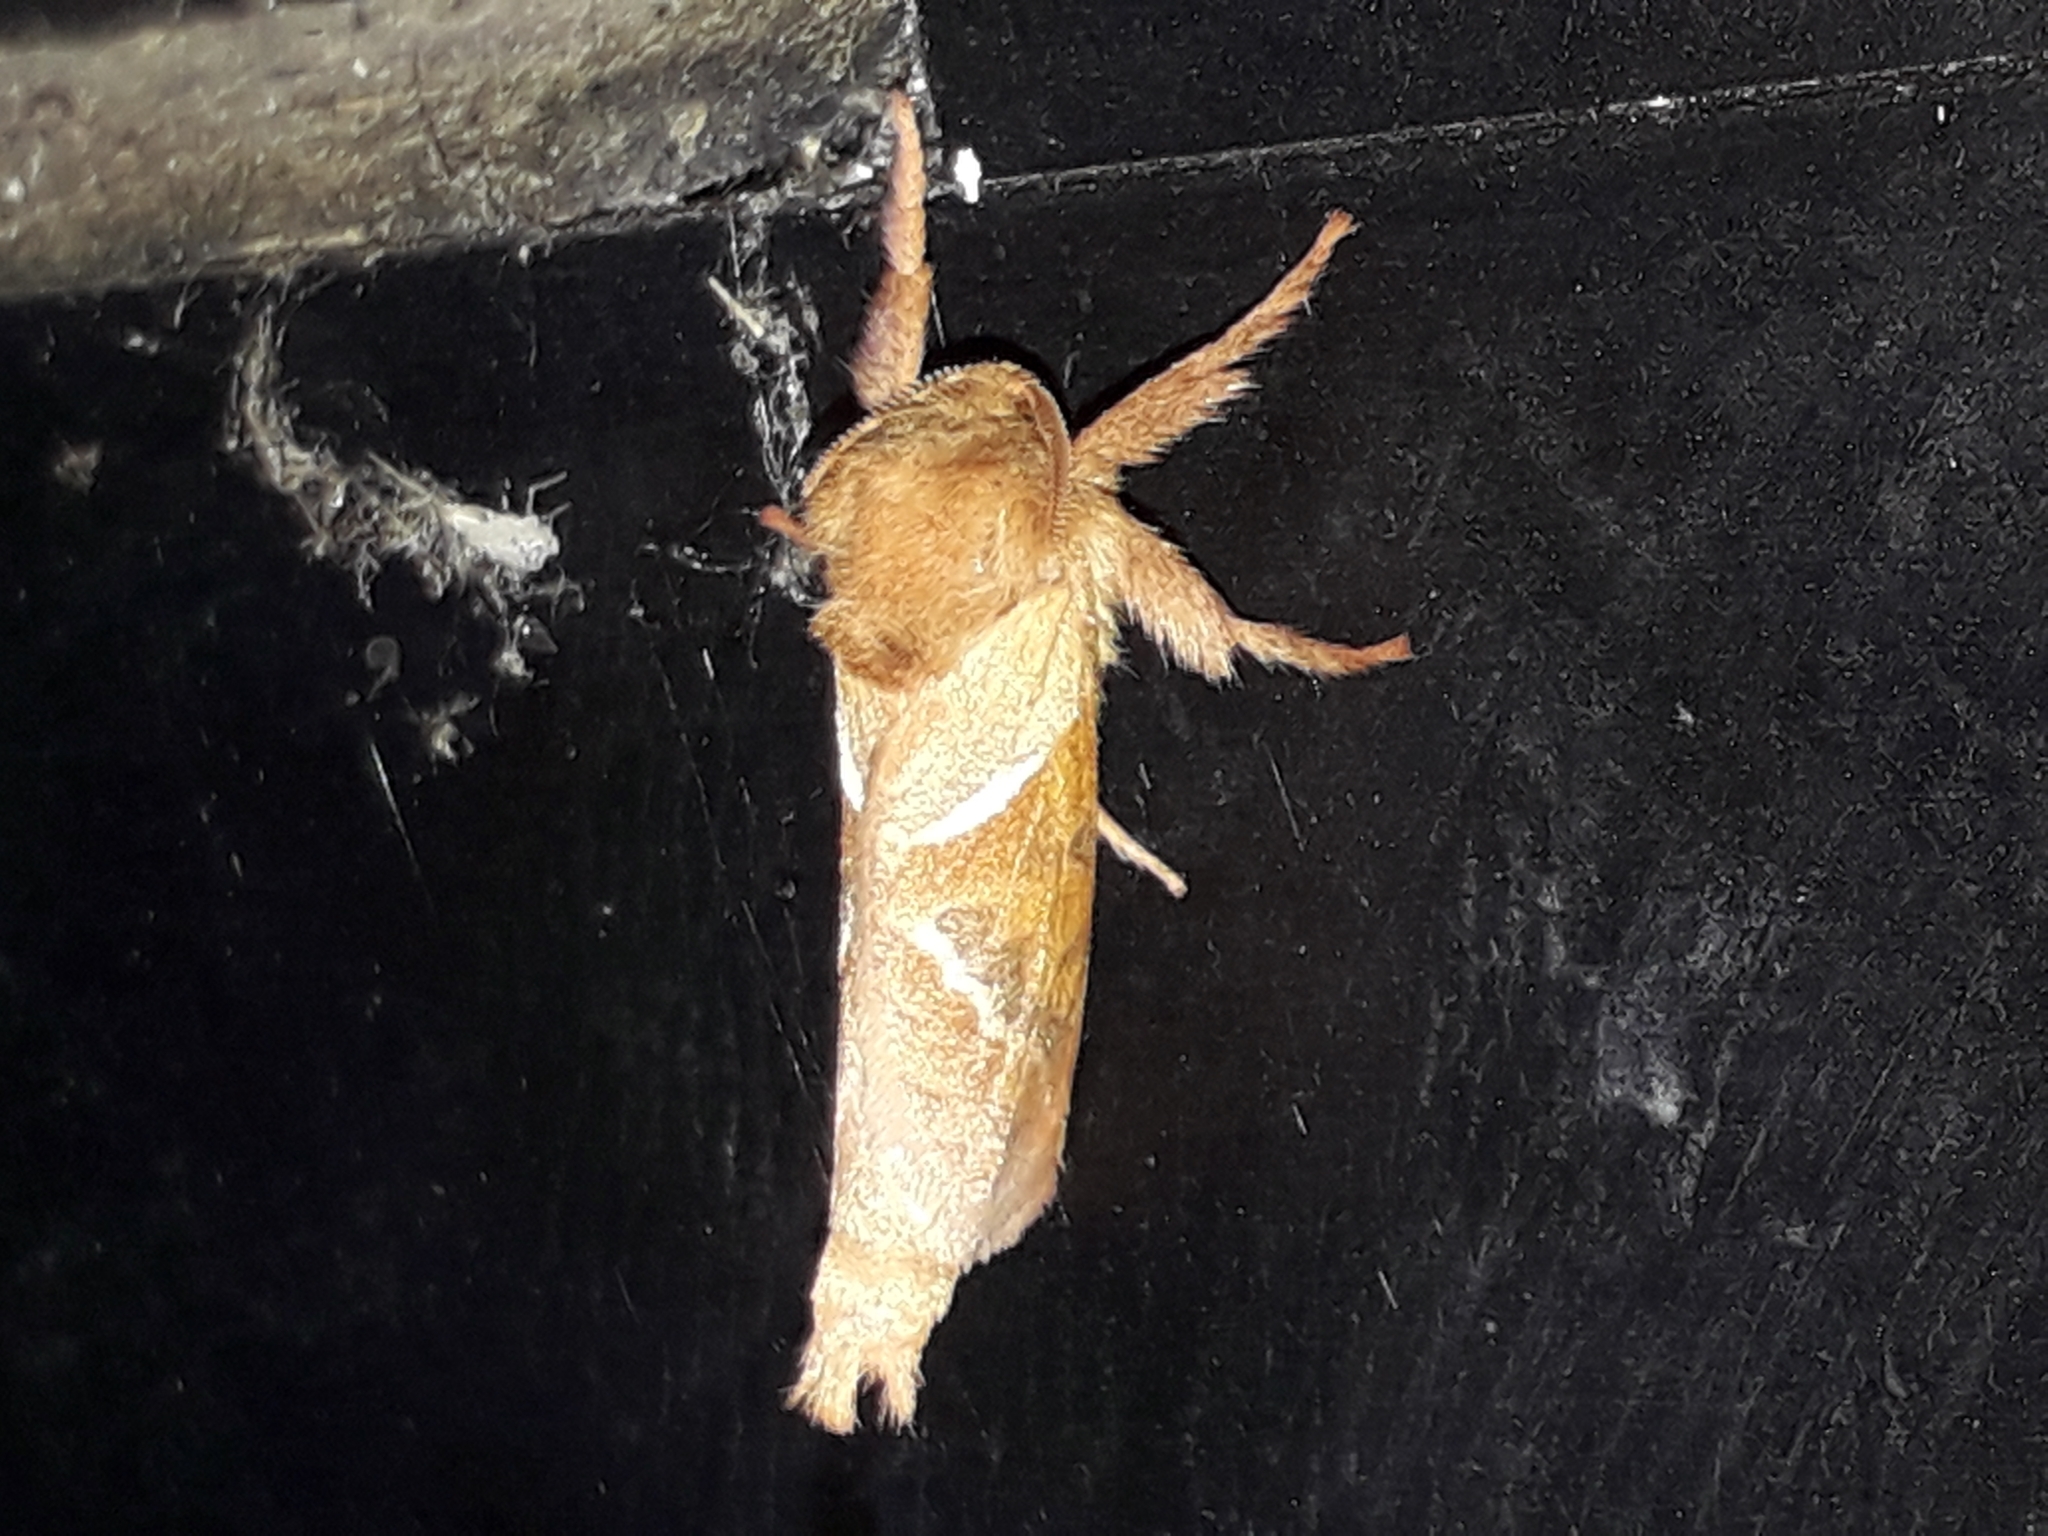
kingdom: Animalia
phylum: Arthropoda
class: Insecta
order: Lepidoptera
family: Hepialidae
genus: Triodia
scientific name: Triodia sylvina
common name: Orange swift
